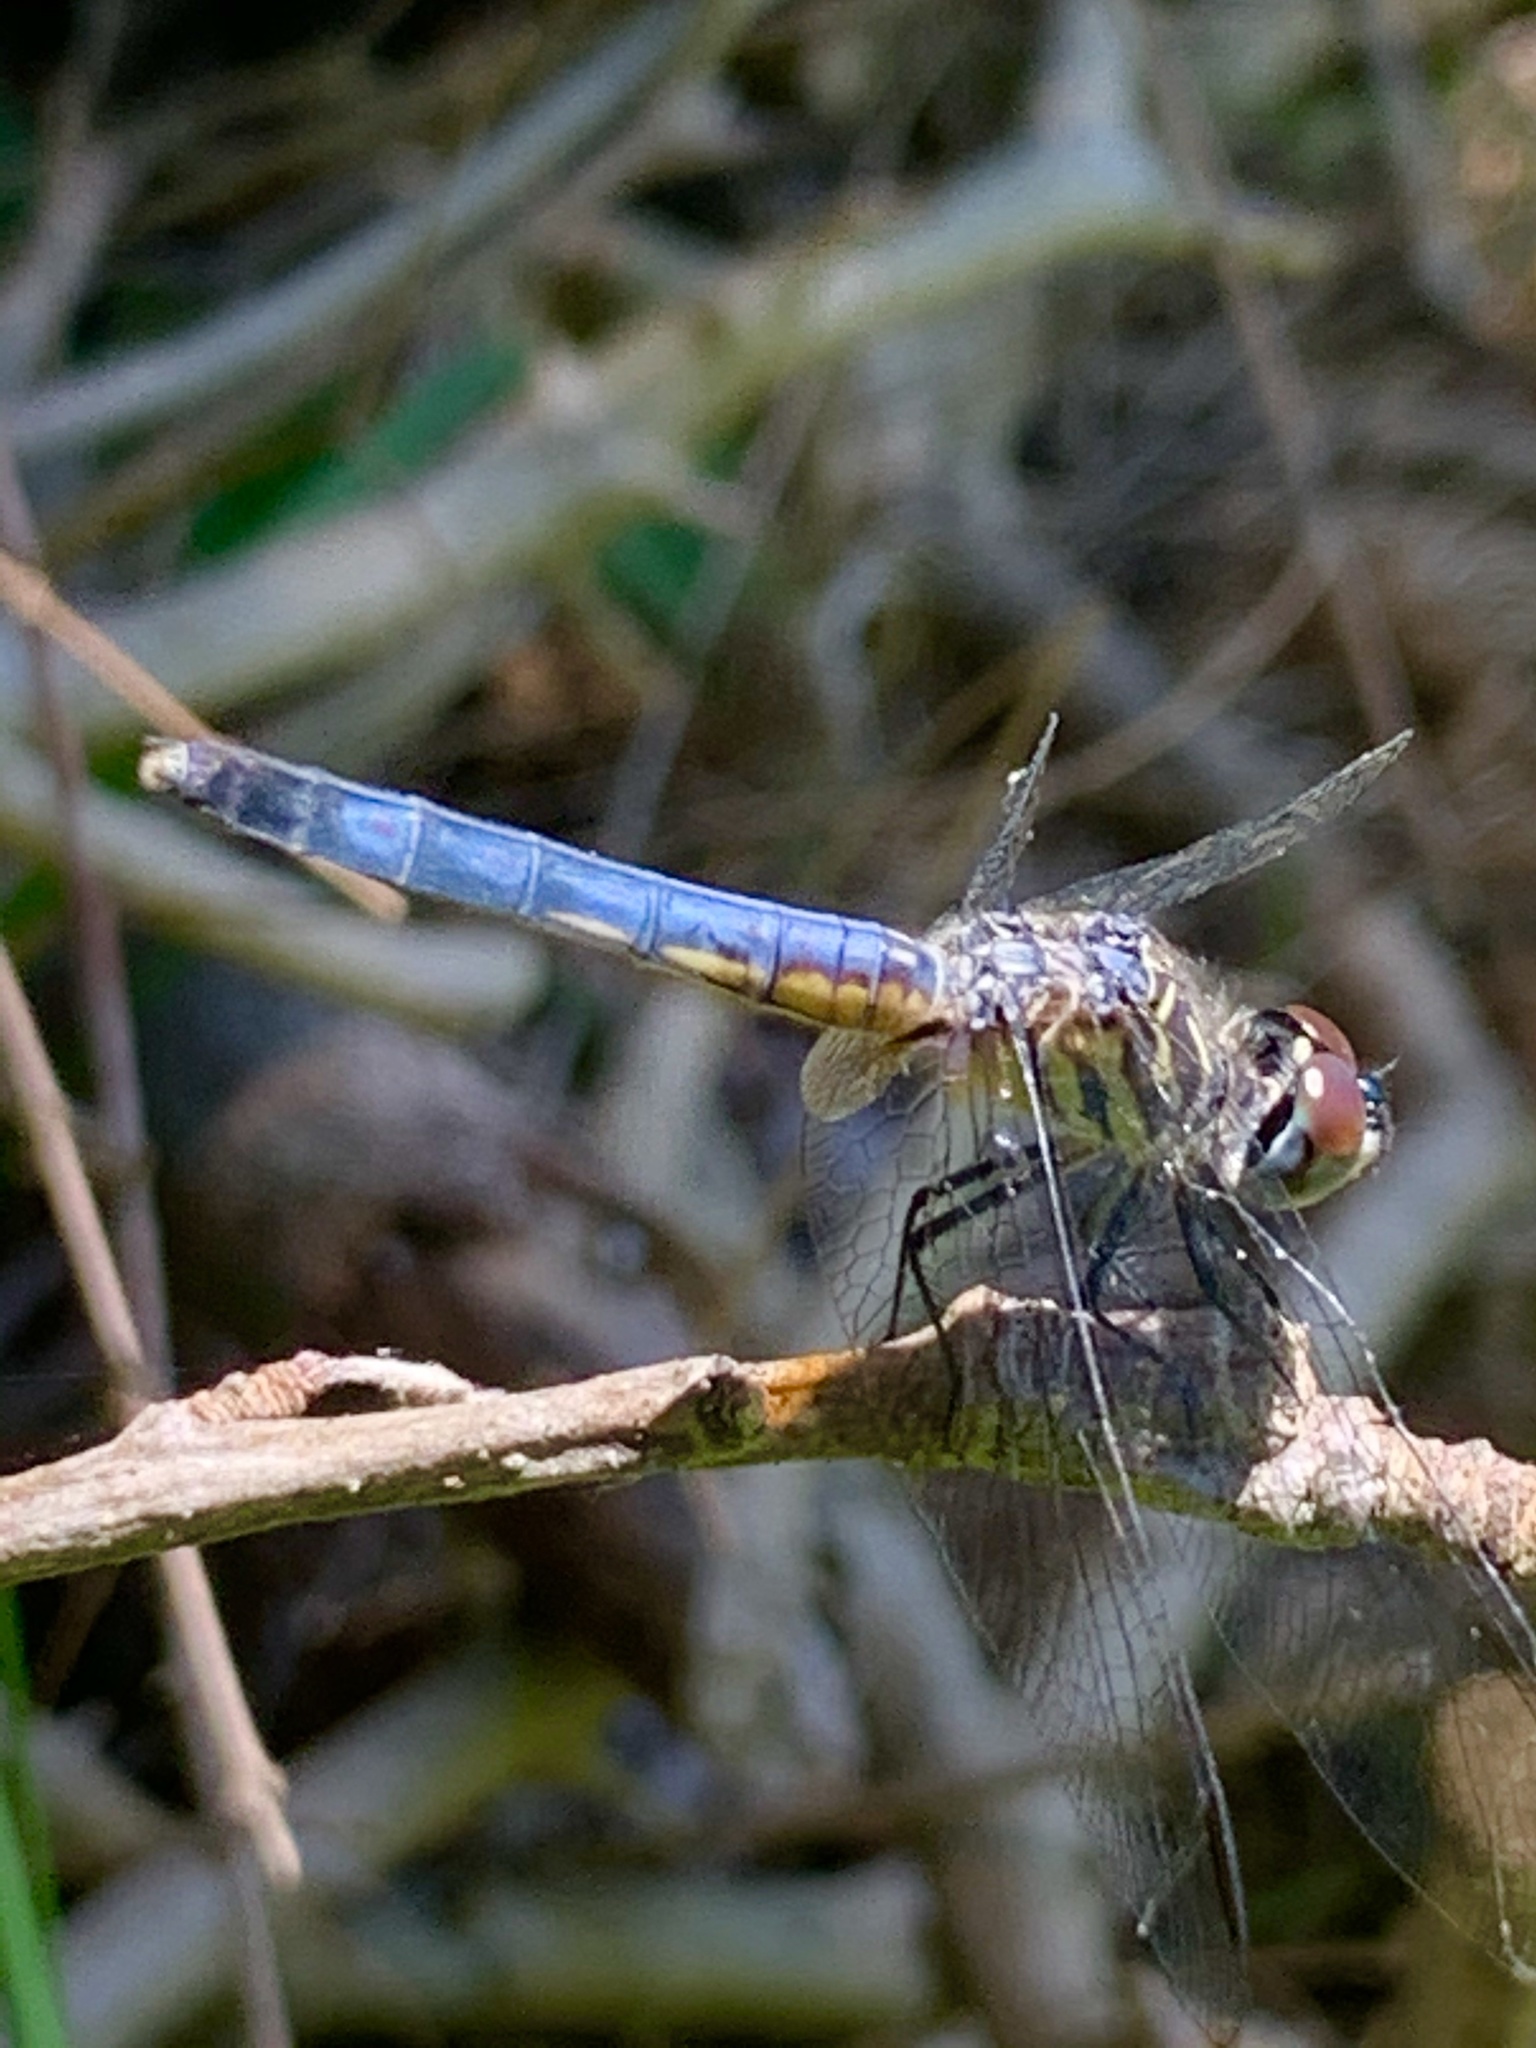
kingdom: Animalia
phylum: Arthropoda
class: Insecta
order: Odonata
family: Libellulidae
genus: Pachydiplax
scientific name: Pachydiplax longipennis
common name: Blue dasher
